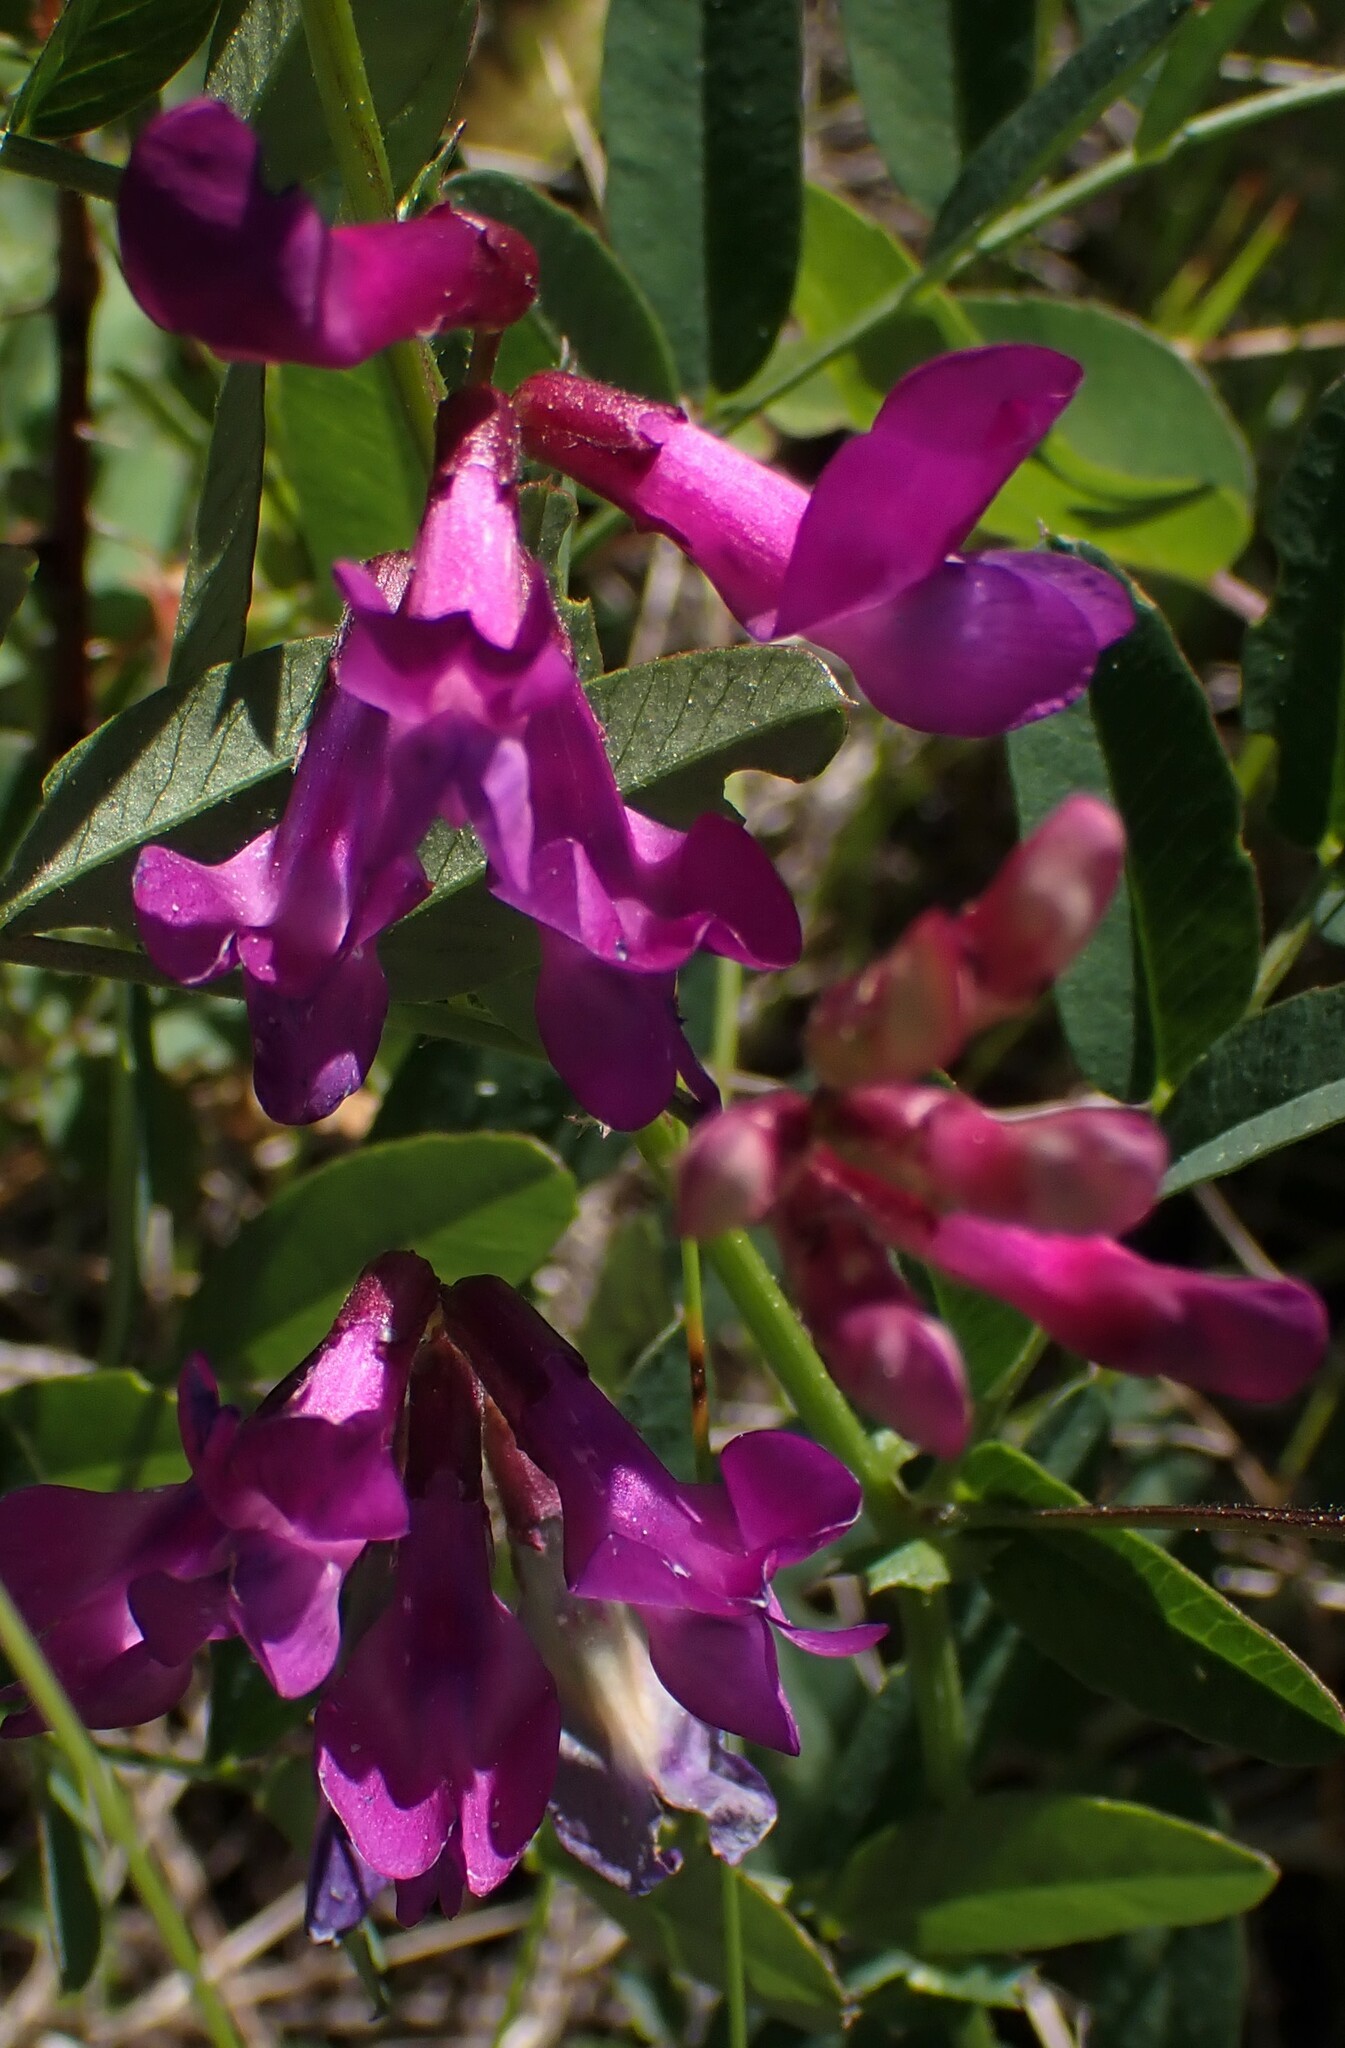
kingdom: Plantae
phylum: Tracheophyta
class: Magnoliopsida
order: Fabales
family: Fabaceae
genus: Vicia
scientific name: Vicia americana
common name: American vetch
